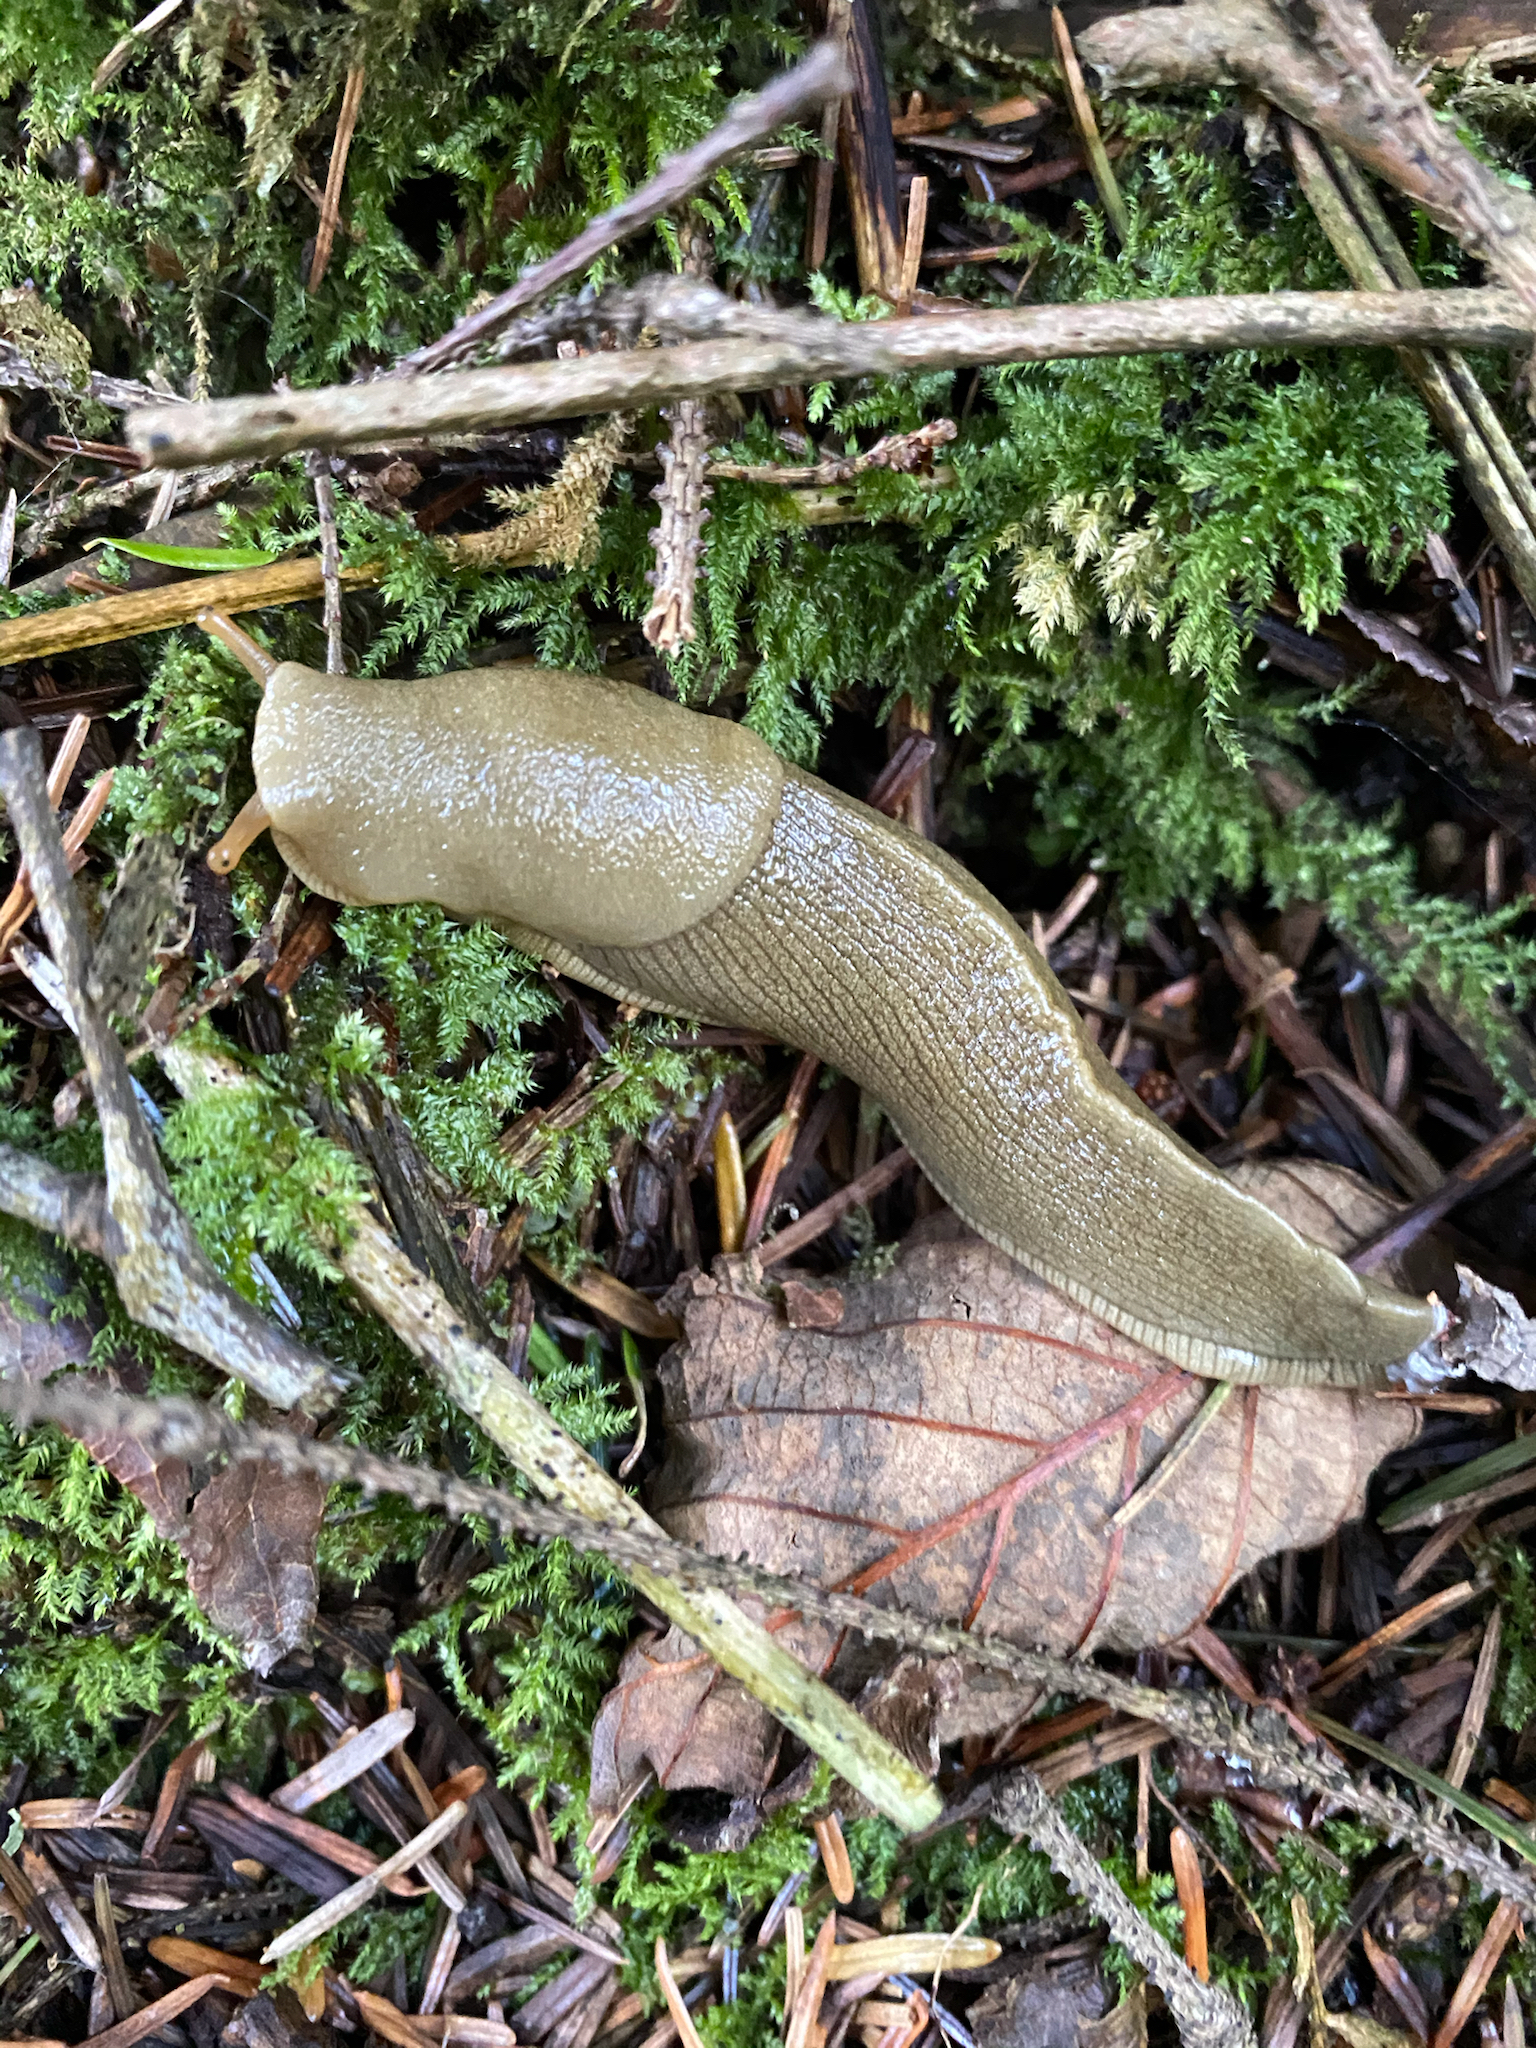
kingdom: Animalia
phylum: Mollusca
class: Gastropoda
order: Stylommatophora
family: Ariolimacidae
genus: Ariolimax
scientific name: Ariolimax columbianus
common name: Pacific banana slug
